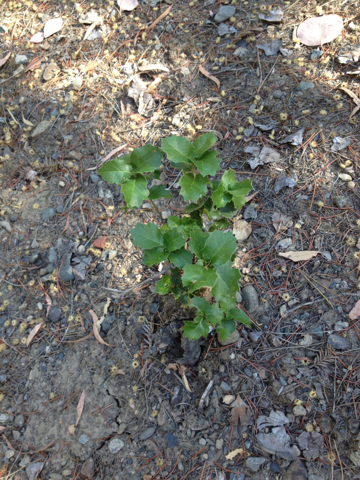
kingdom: Plantae
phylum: Tracheophyta
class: Magnoliopsida
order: Fagales
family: Fagaceae
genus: Quercus
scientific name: Quercus agrifolia
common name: California live oak
